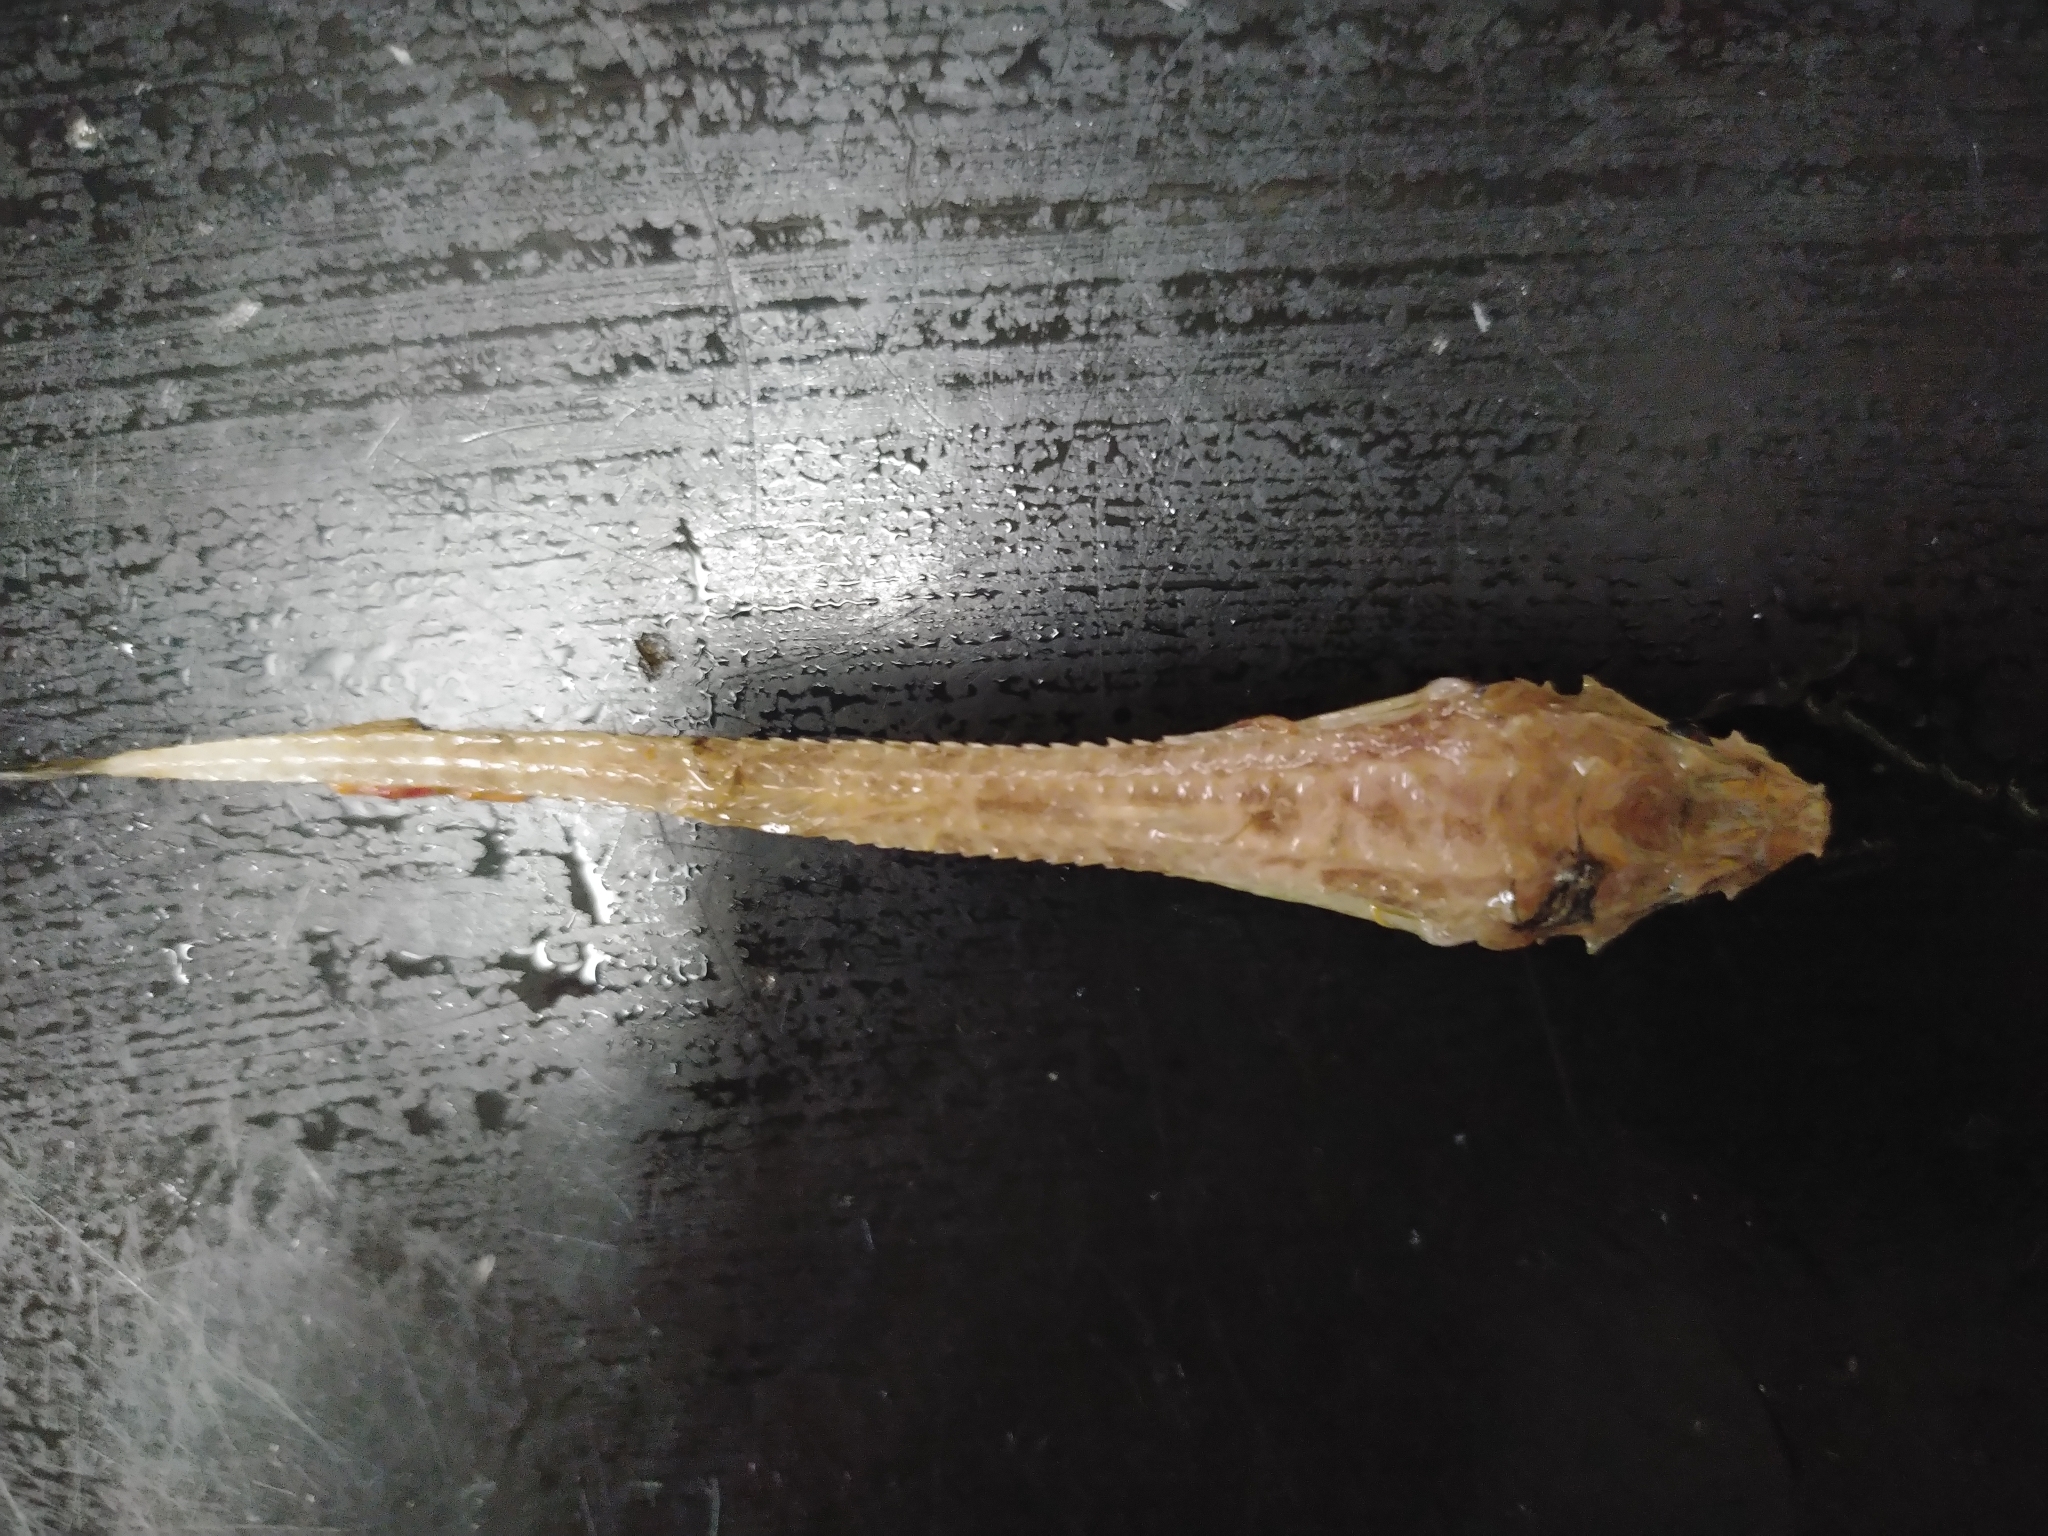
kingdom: Animalia
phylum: Chordata
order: Scorpaeniformes
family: Agonidae
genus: Leptagonus
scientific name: Leptagonus decagonus
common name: Atlantic poacher
